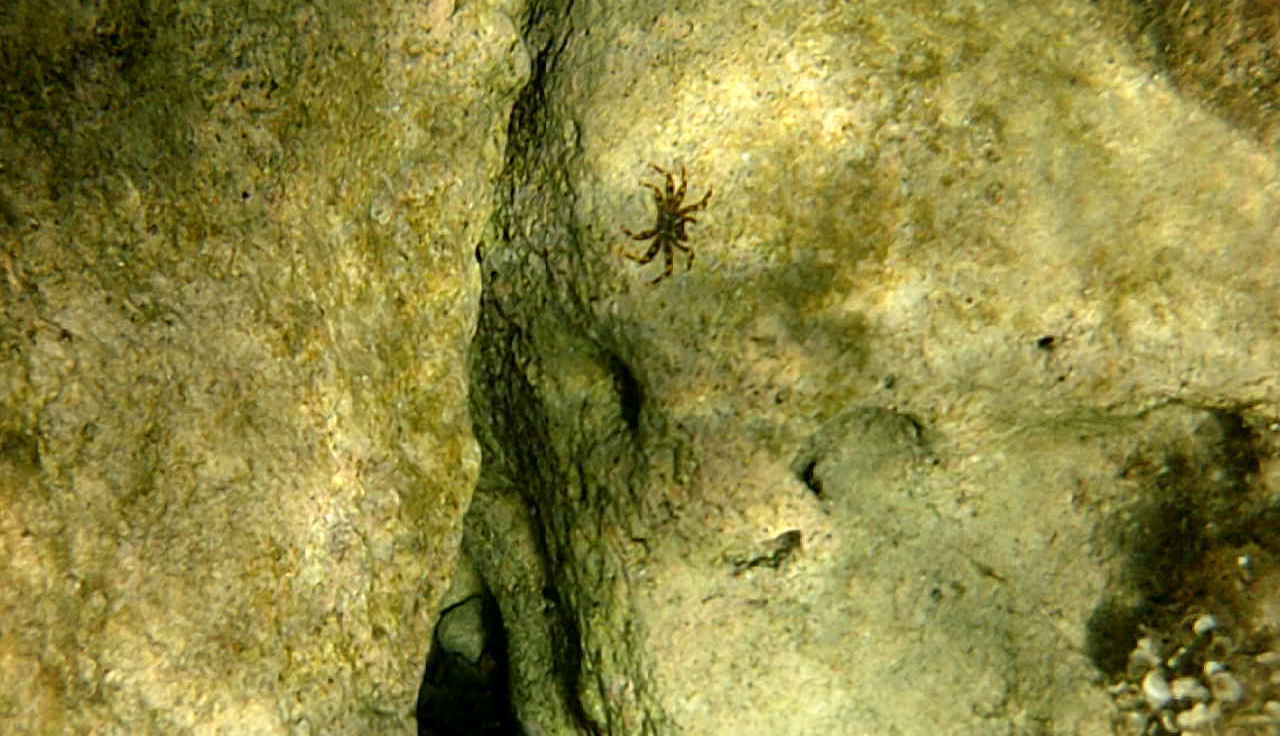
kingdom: Animalia
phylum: Arthropoda
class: Malacostraca
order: Decapoda
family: Percnidae
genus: Percnon
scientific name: Percnon gibbesi
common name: Nimble spray crab
